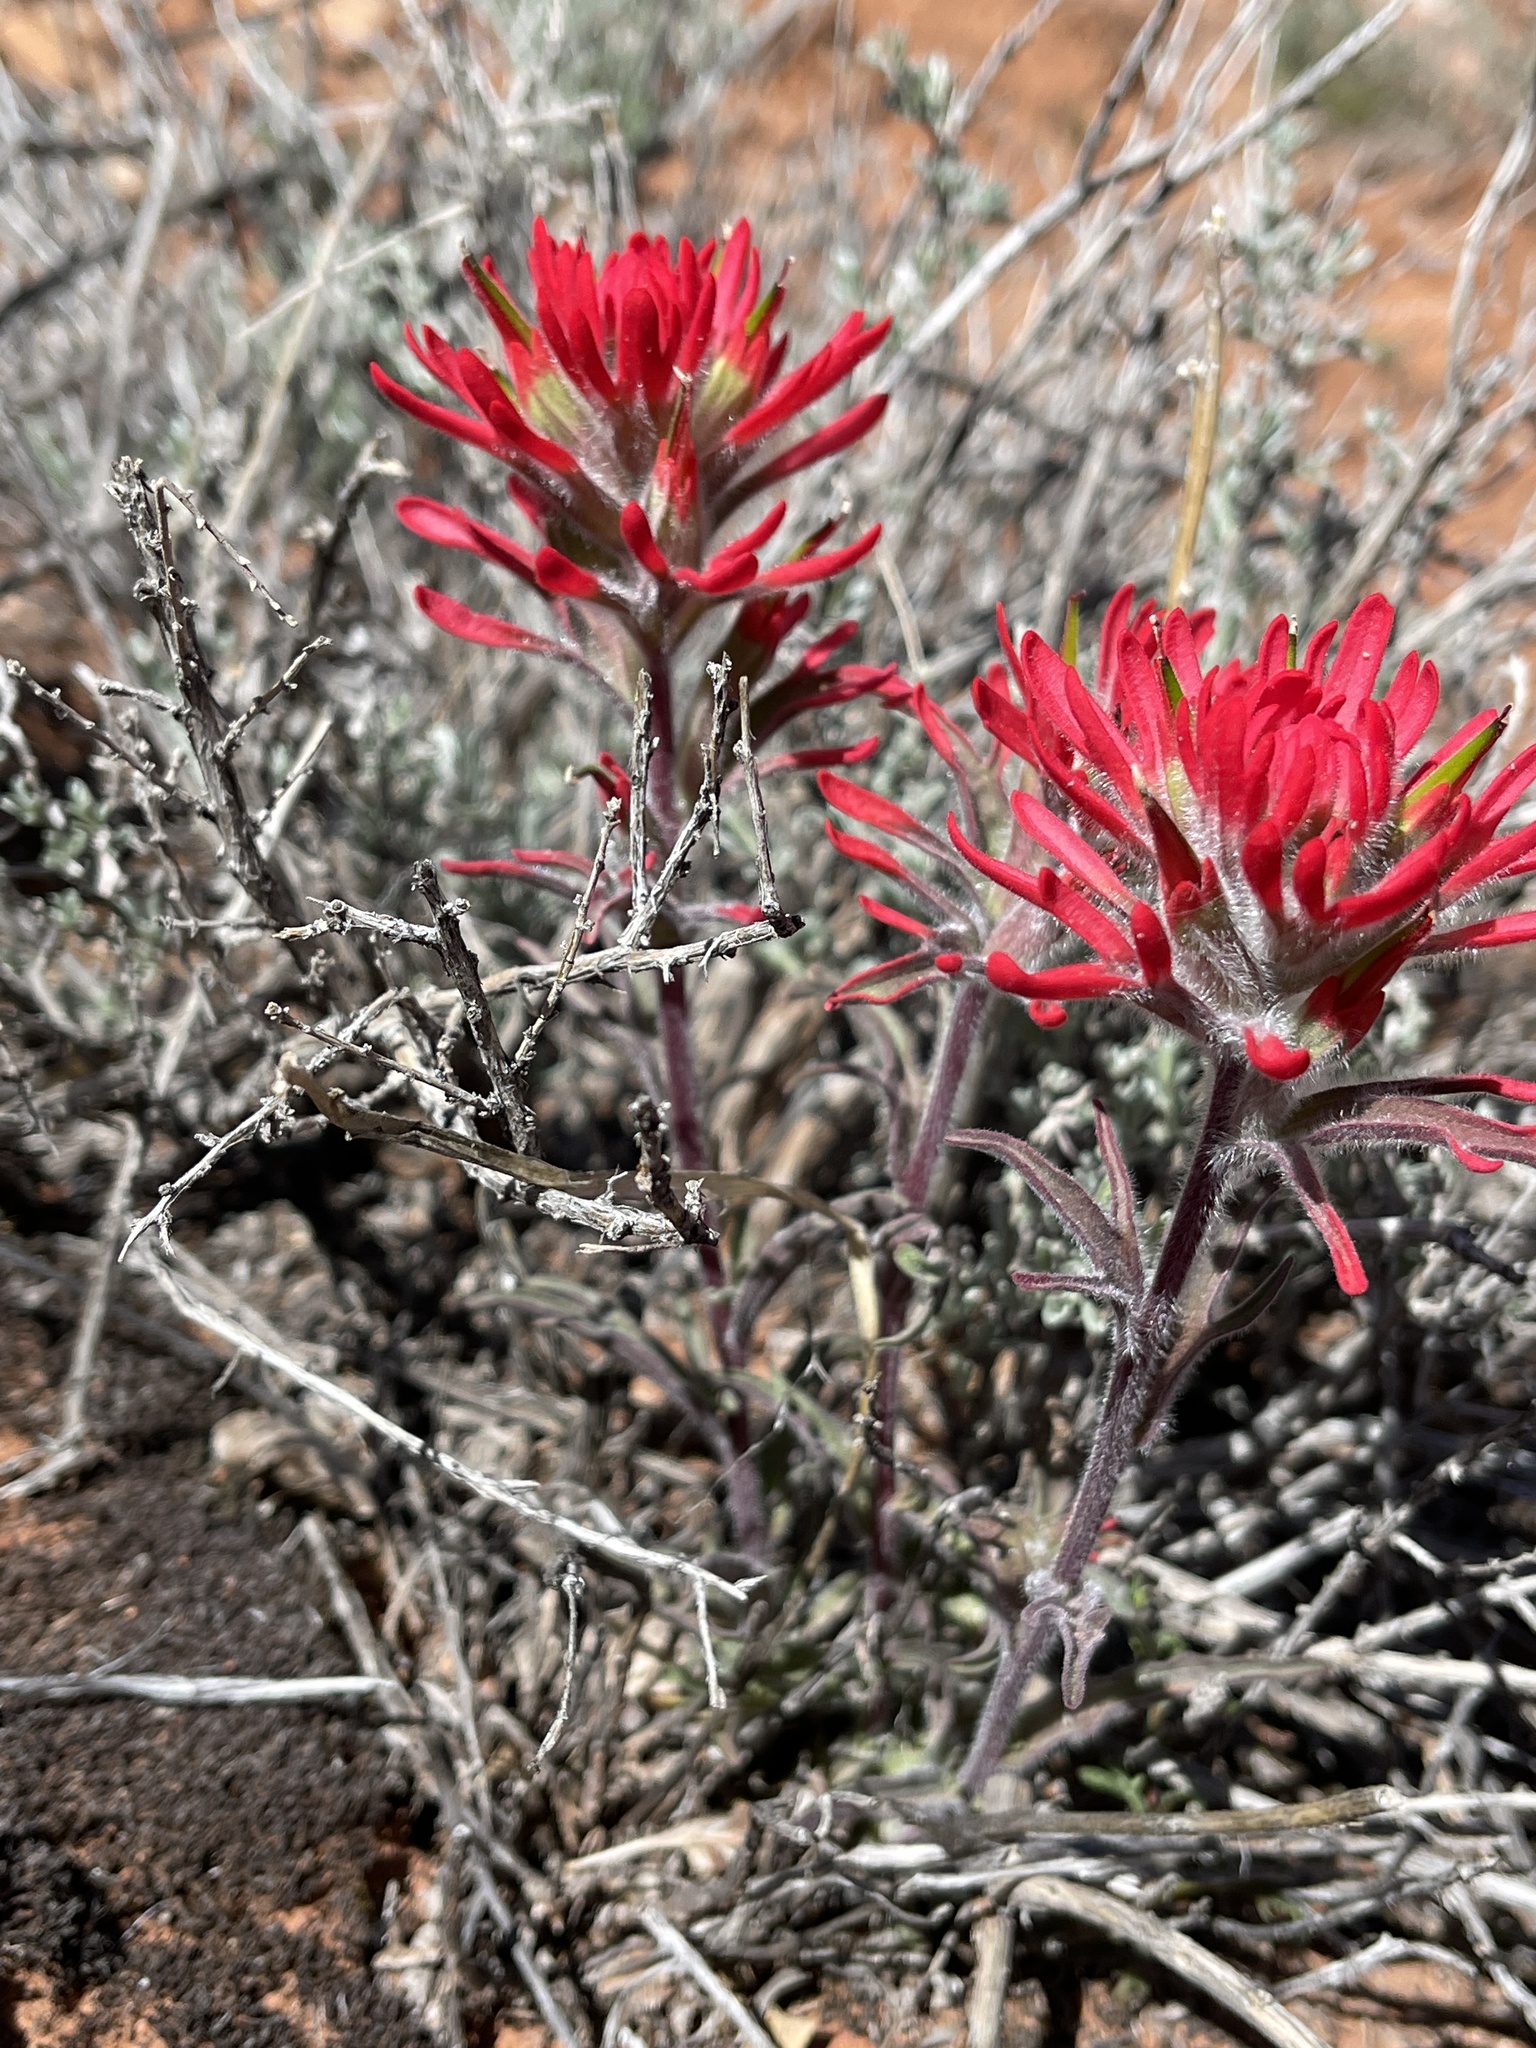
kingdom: Plantae
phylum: Tracheophyta
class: Magnoliopsida
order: Lamiales
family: Orobanchaceae
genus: Castilleja
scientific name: Castilleja chromosa
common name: Desert paintbrush
